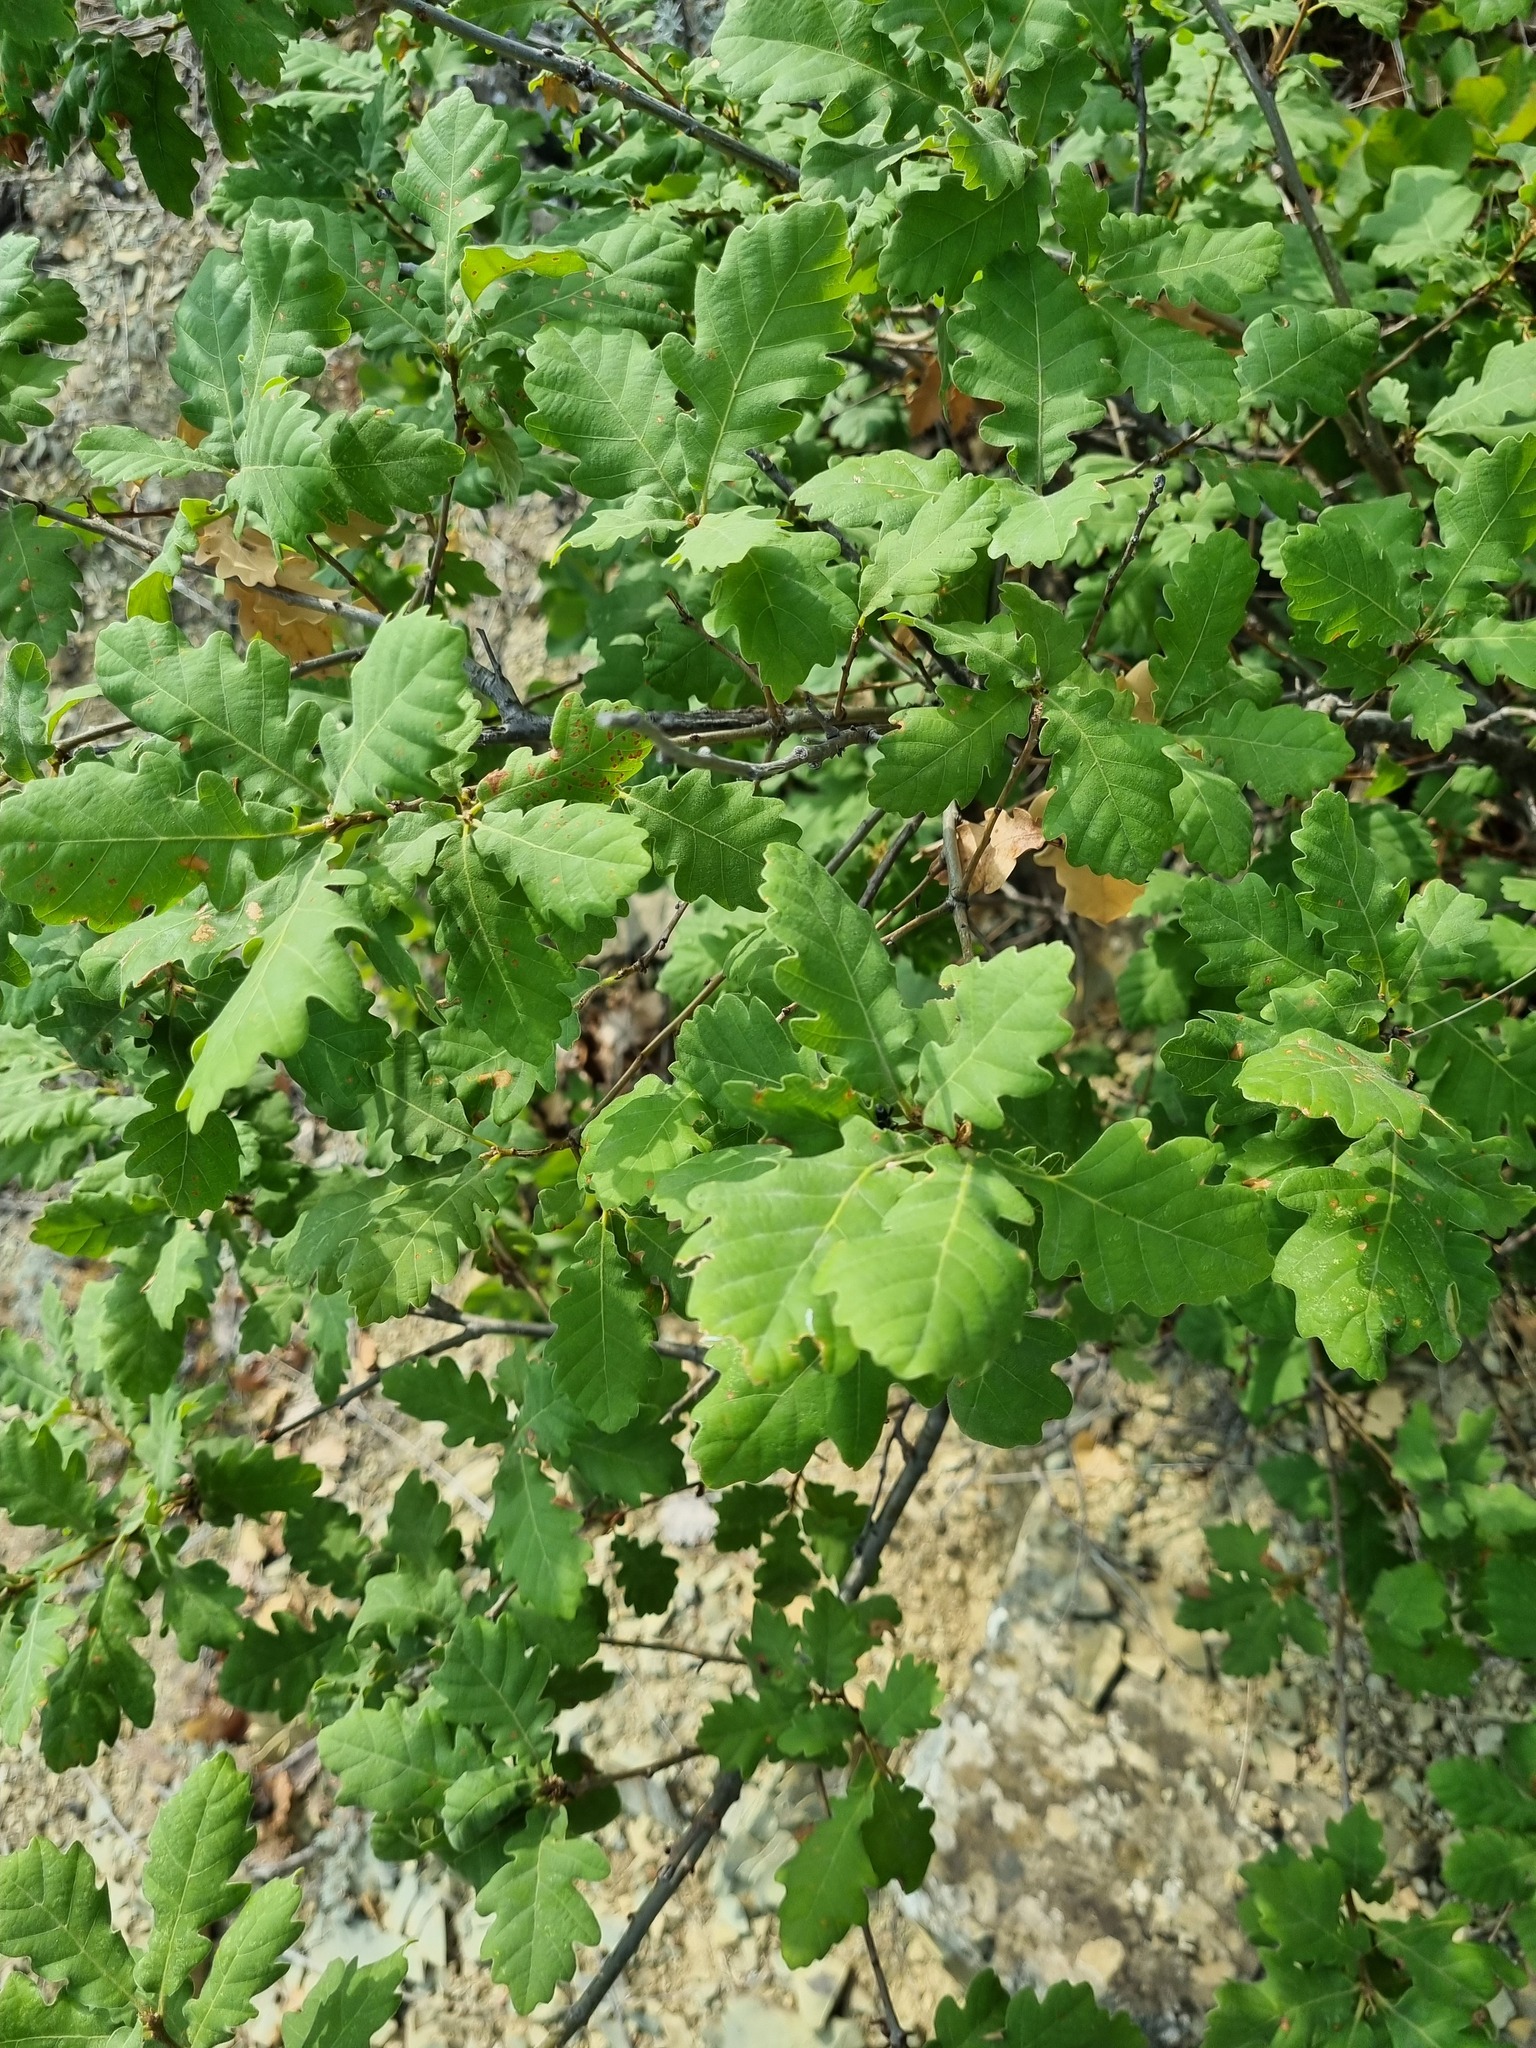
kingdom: Plantae
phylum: Tracheophyta
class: Magnoliopsida
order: Fagales
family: Fagaceae
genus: Quercus
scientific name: Quercus pubescens
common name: Downy oak
